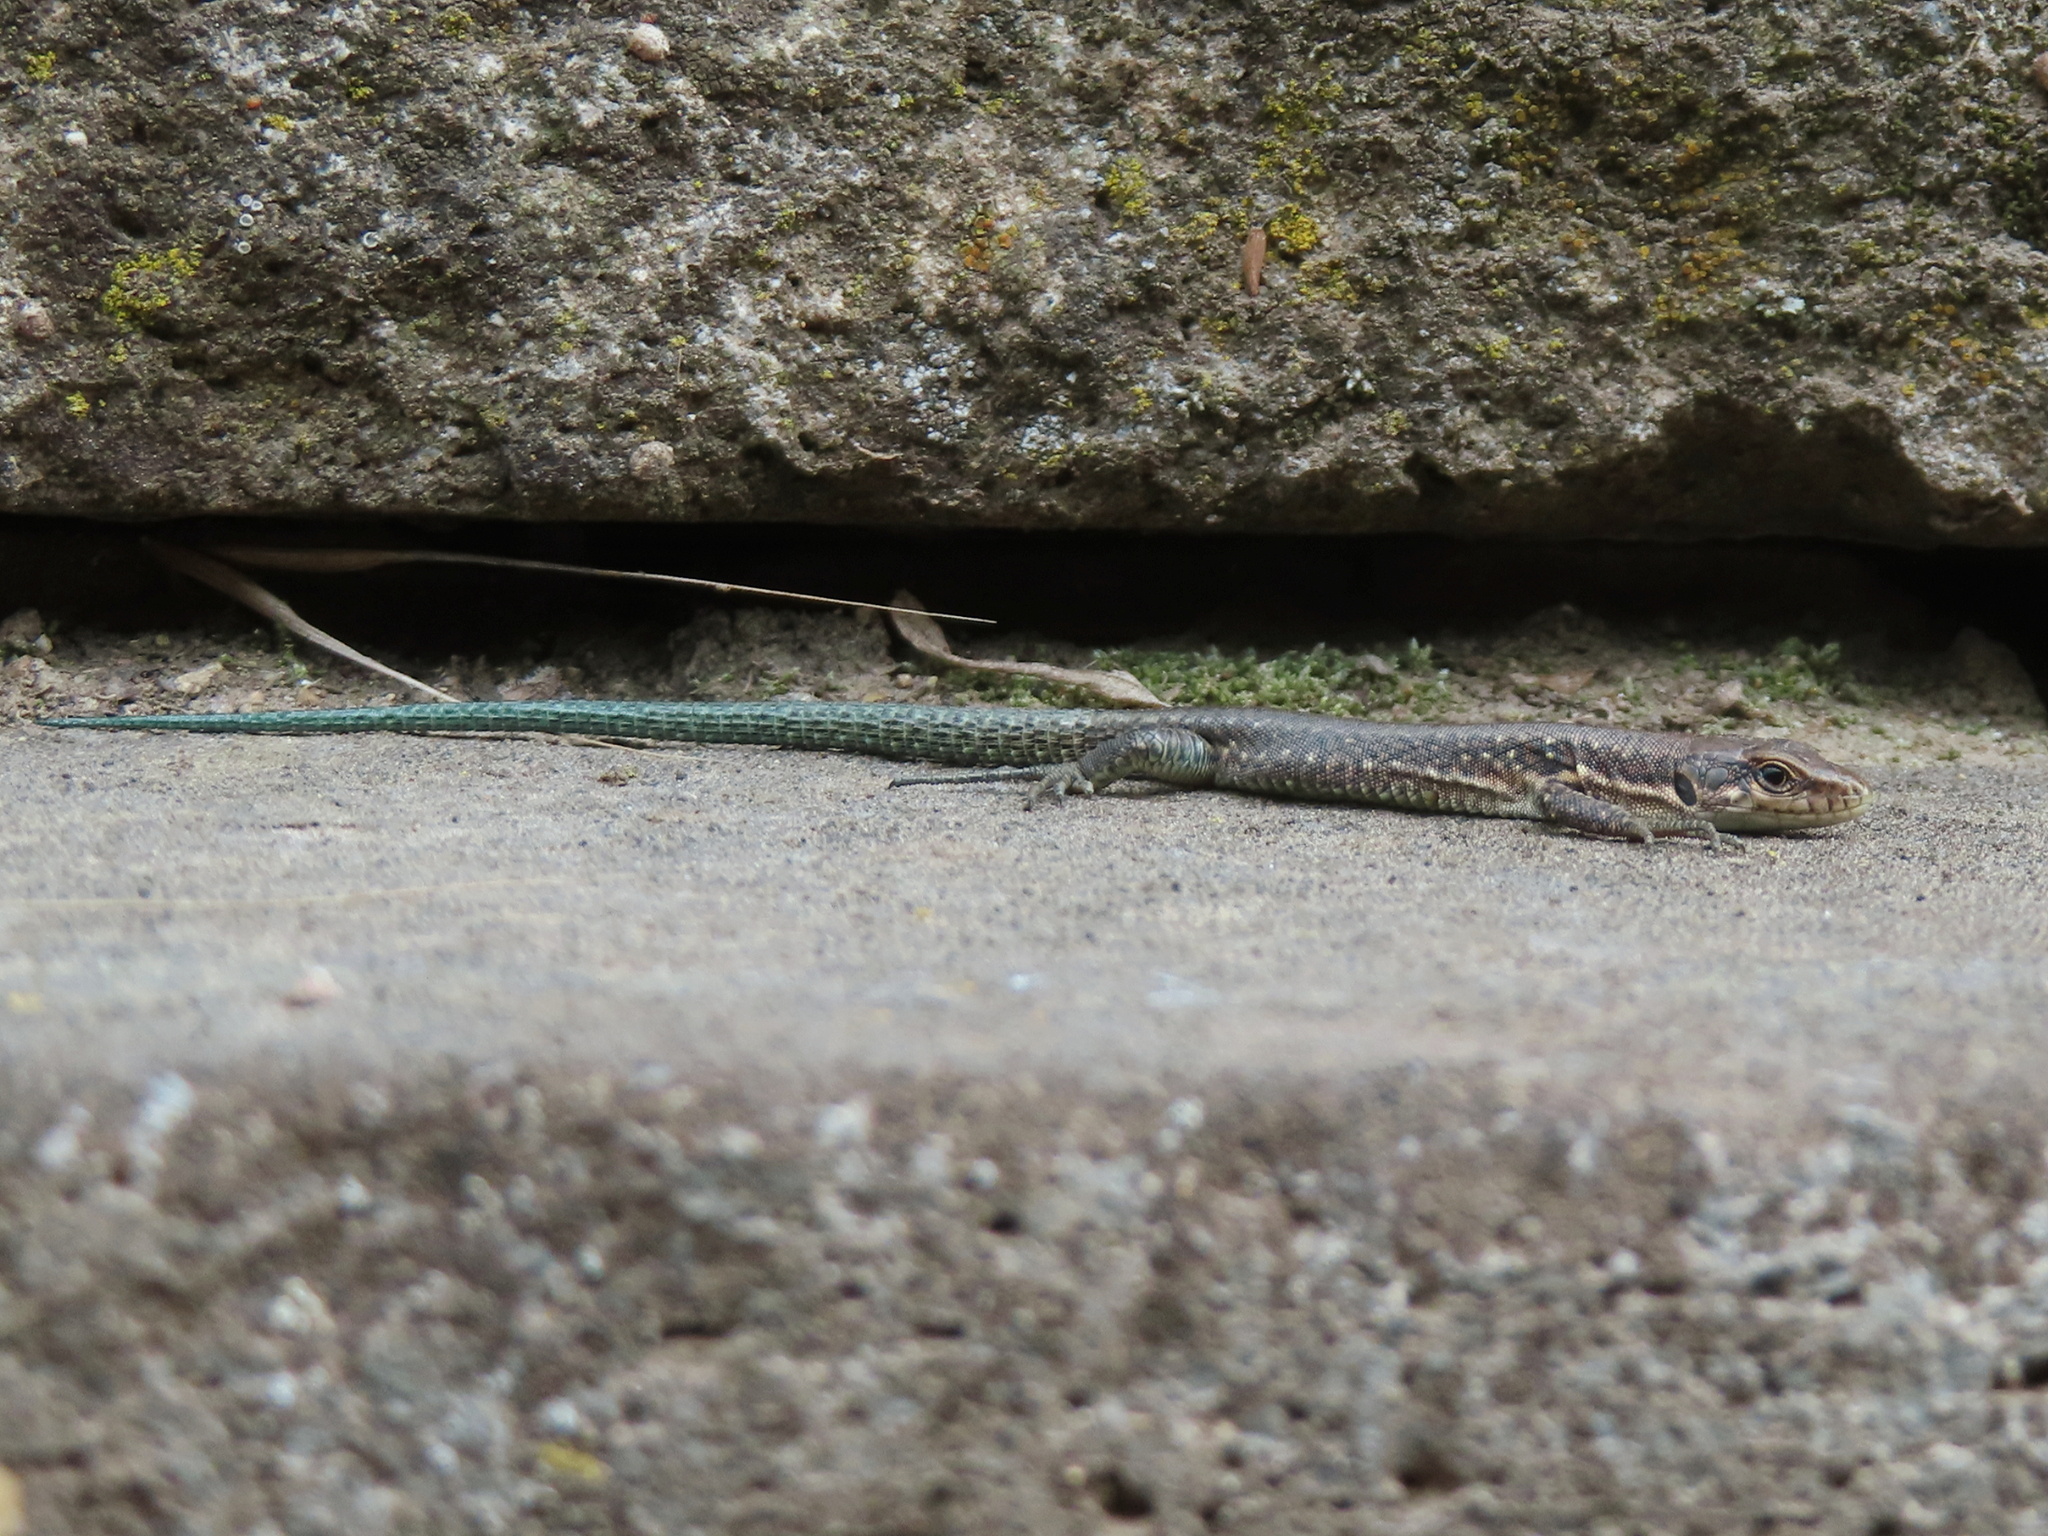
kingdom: Animalia
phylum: Chordata
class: Squamata
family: Lacertidae
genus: Darevskia
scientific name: Darevskia armeniaca
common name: Armenian lizard
